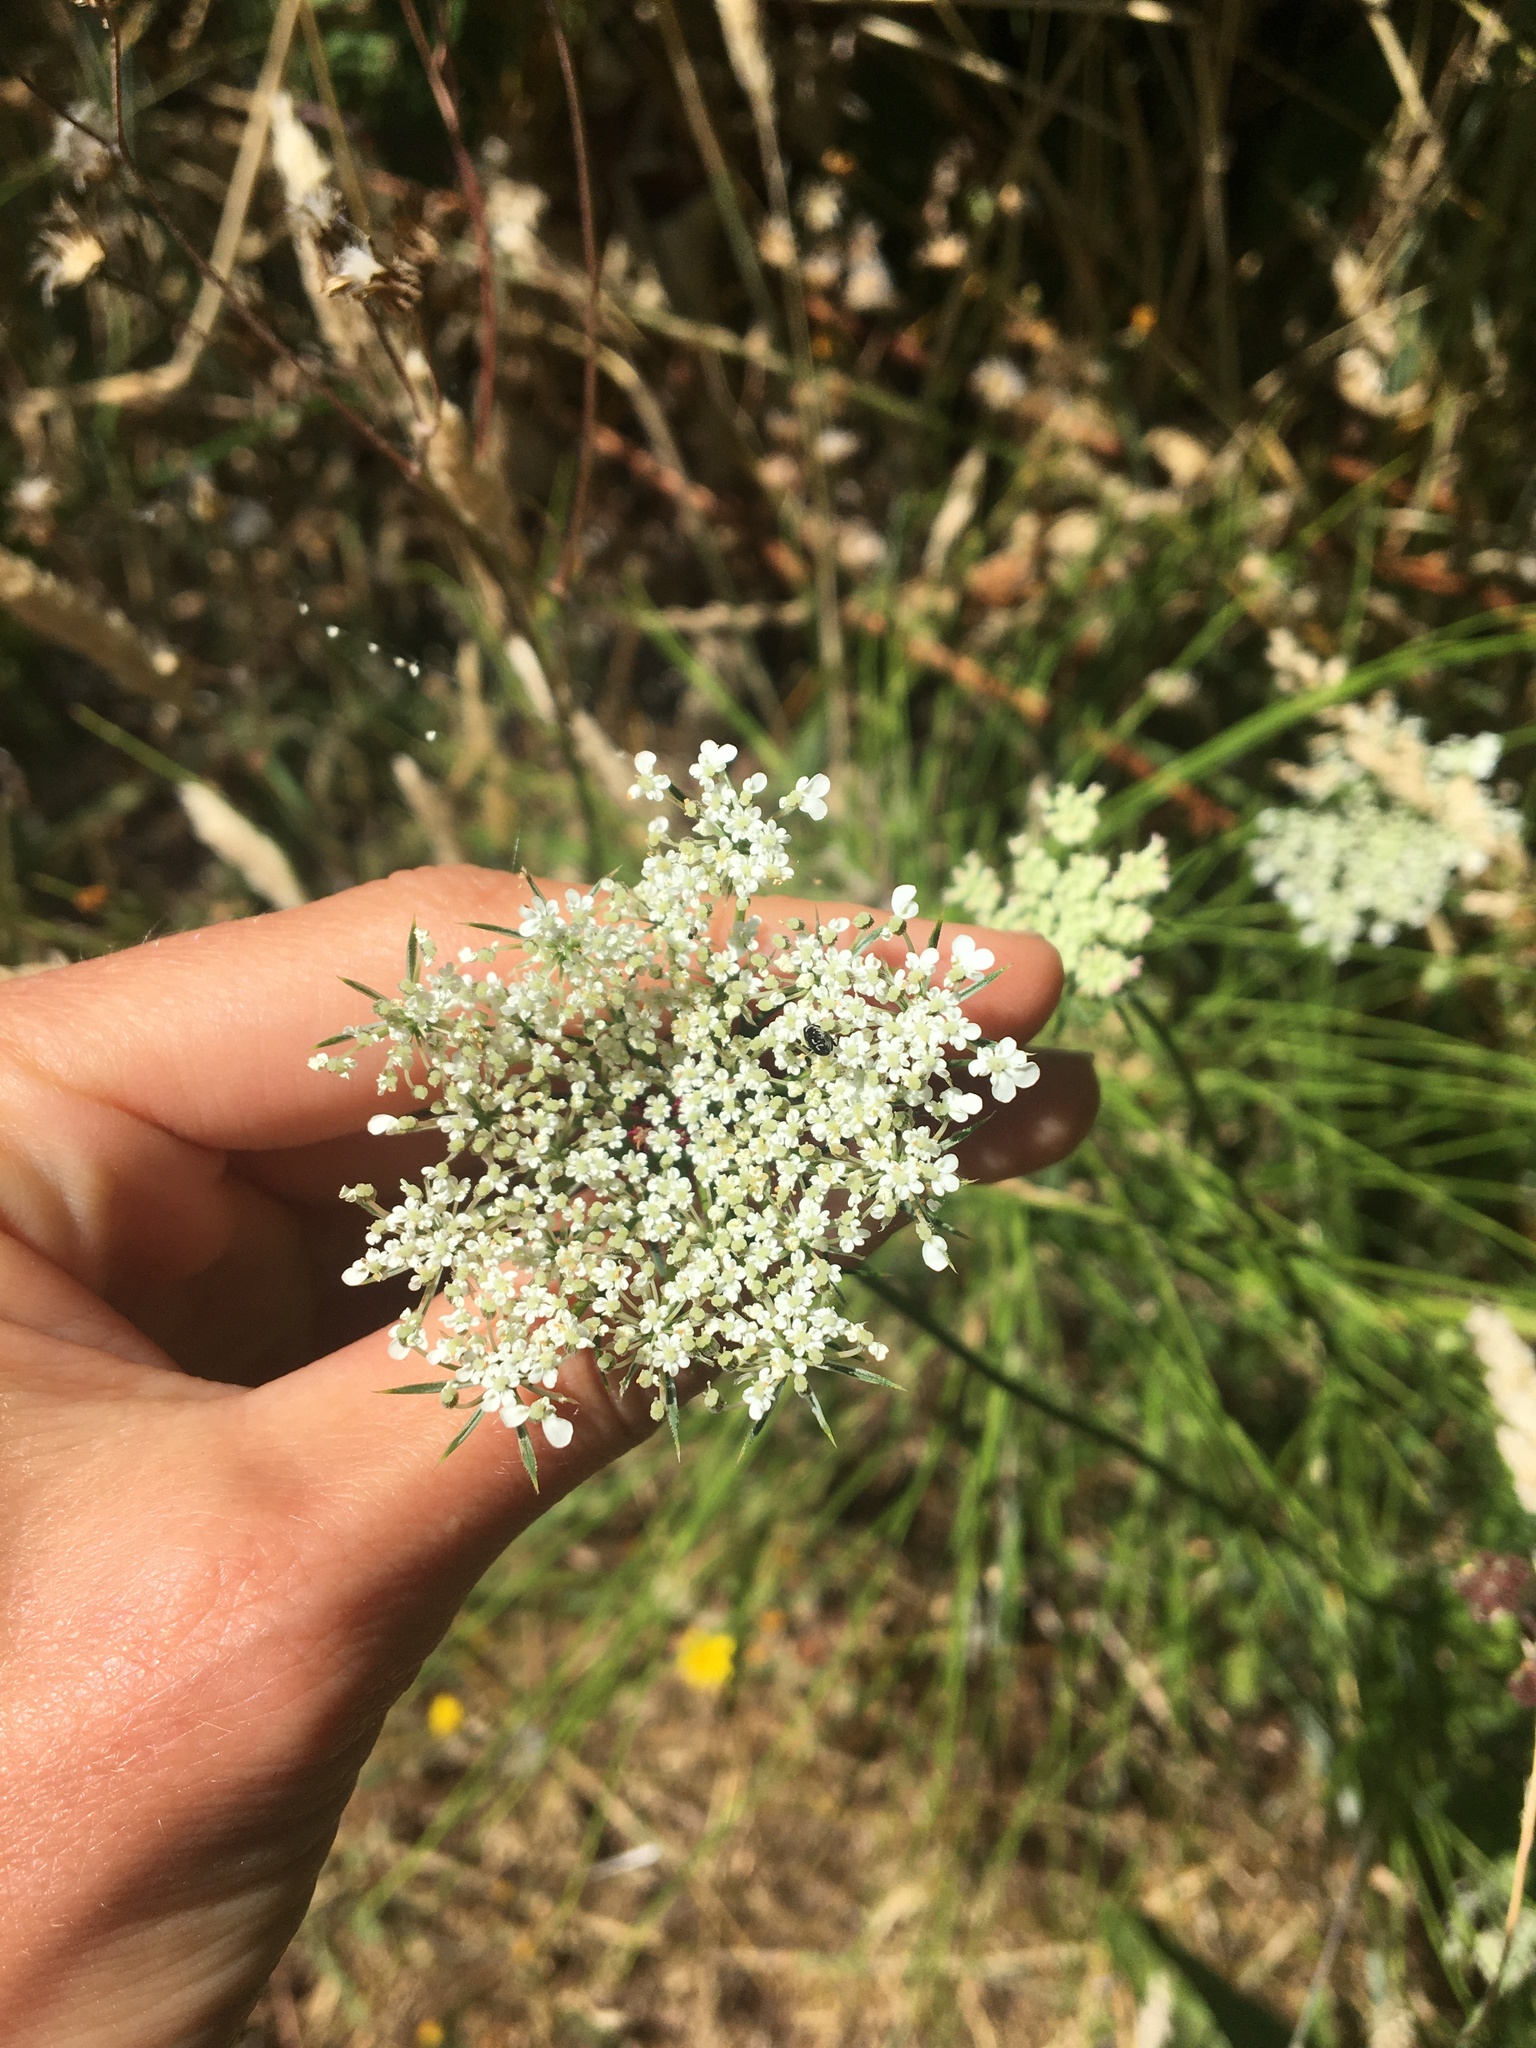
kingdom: Plantae
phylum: Tracheophyta
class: Magnoliopsida
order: Apiales
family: Apiaceae
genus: Daucus
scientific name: Daucus carota
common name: Wild carrot
